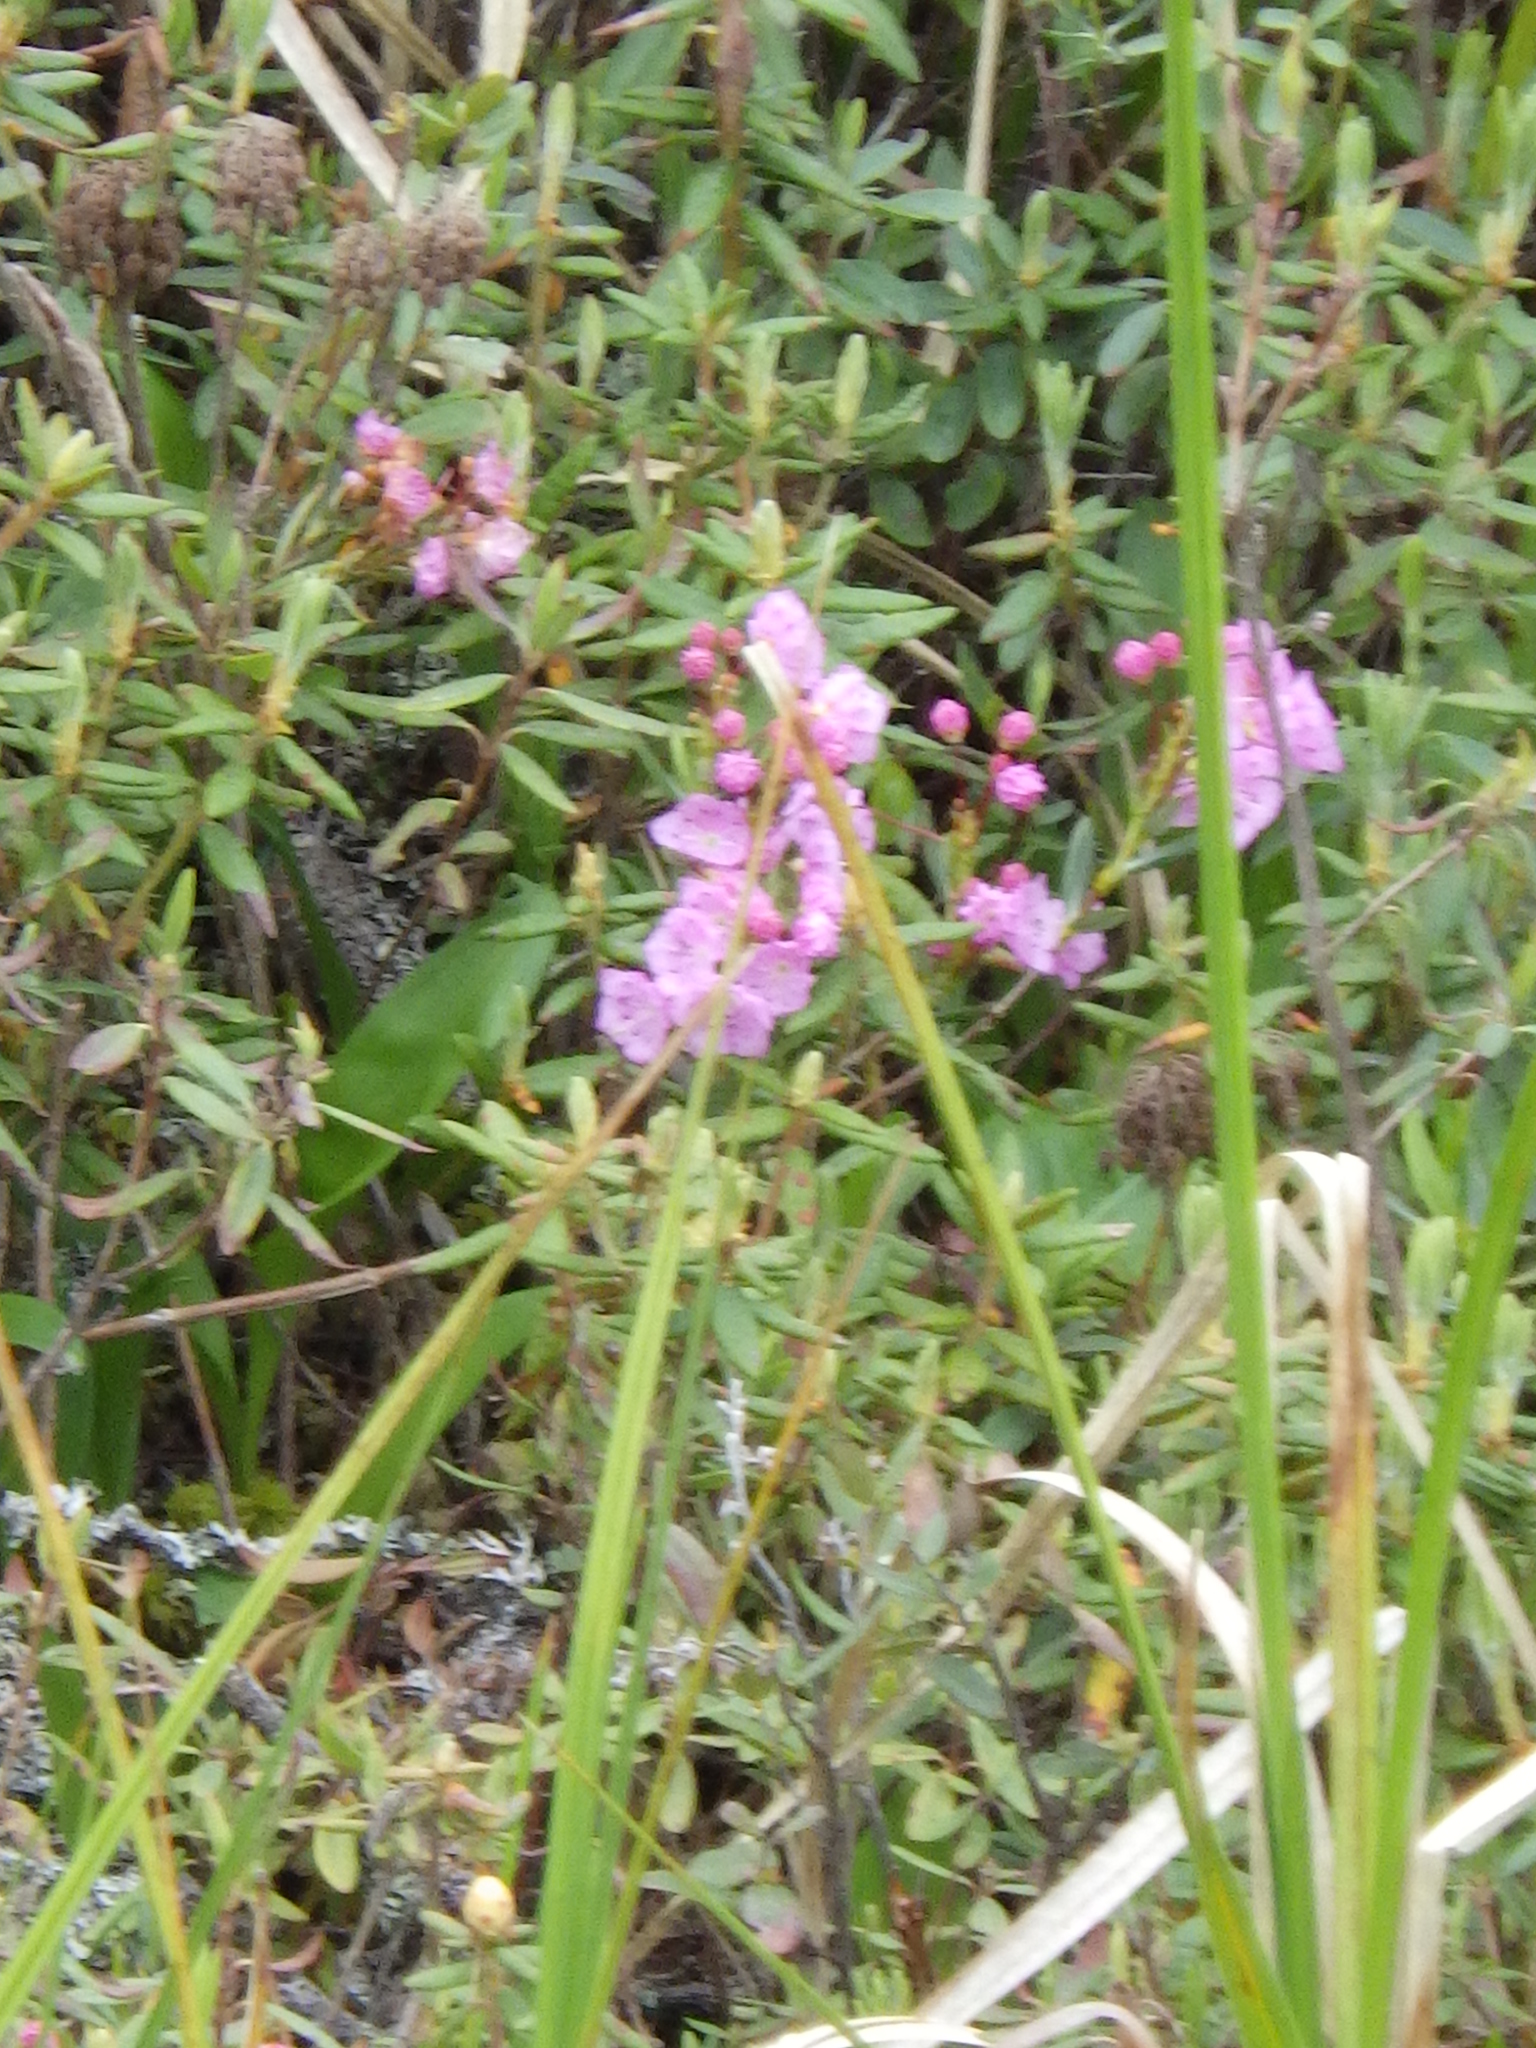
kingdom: Plantae
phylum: Tracheophyta
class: Magnoliopsida
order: Ericales
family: Ericaceae
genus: Kalmia
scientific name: Kalmia polifolia
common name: Bog-laurel
